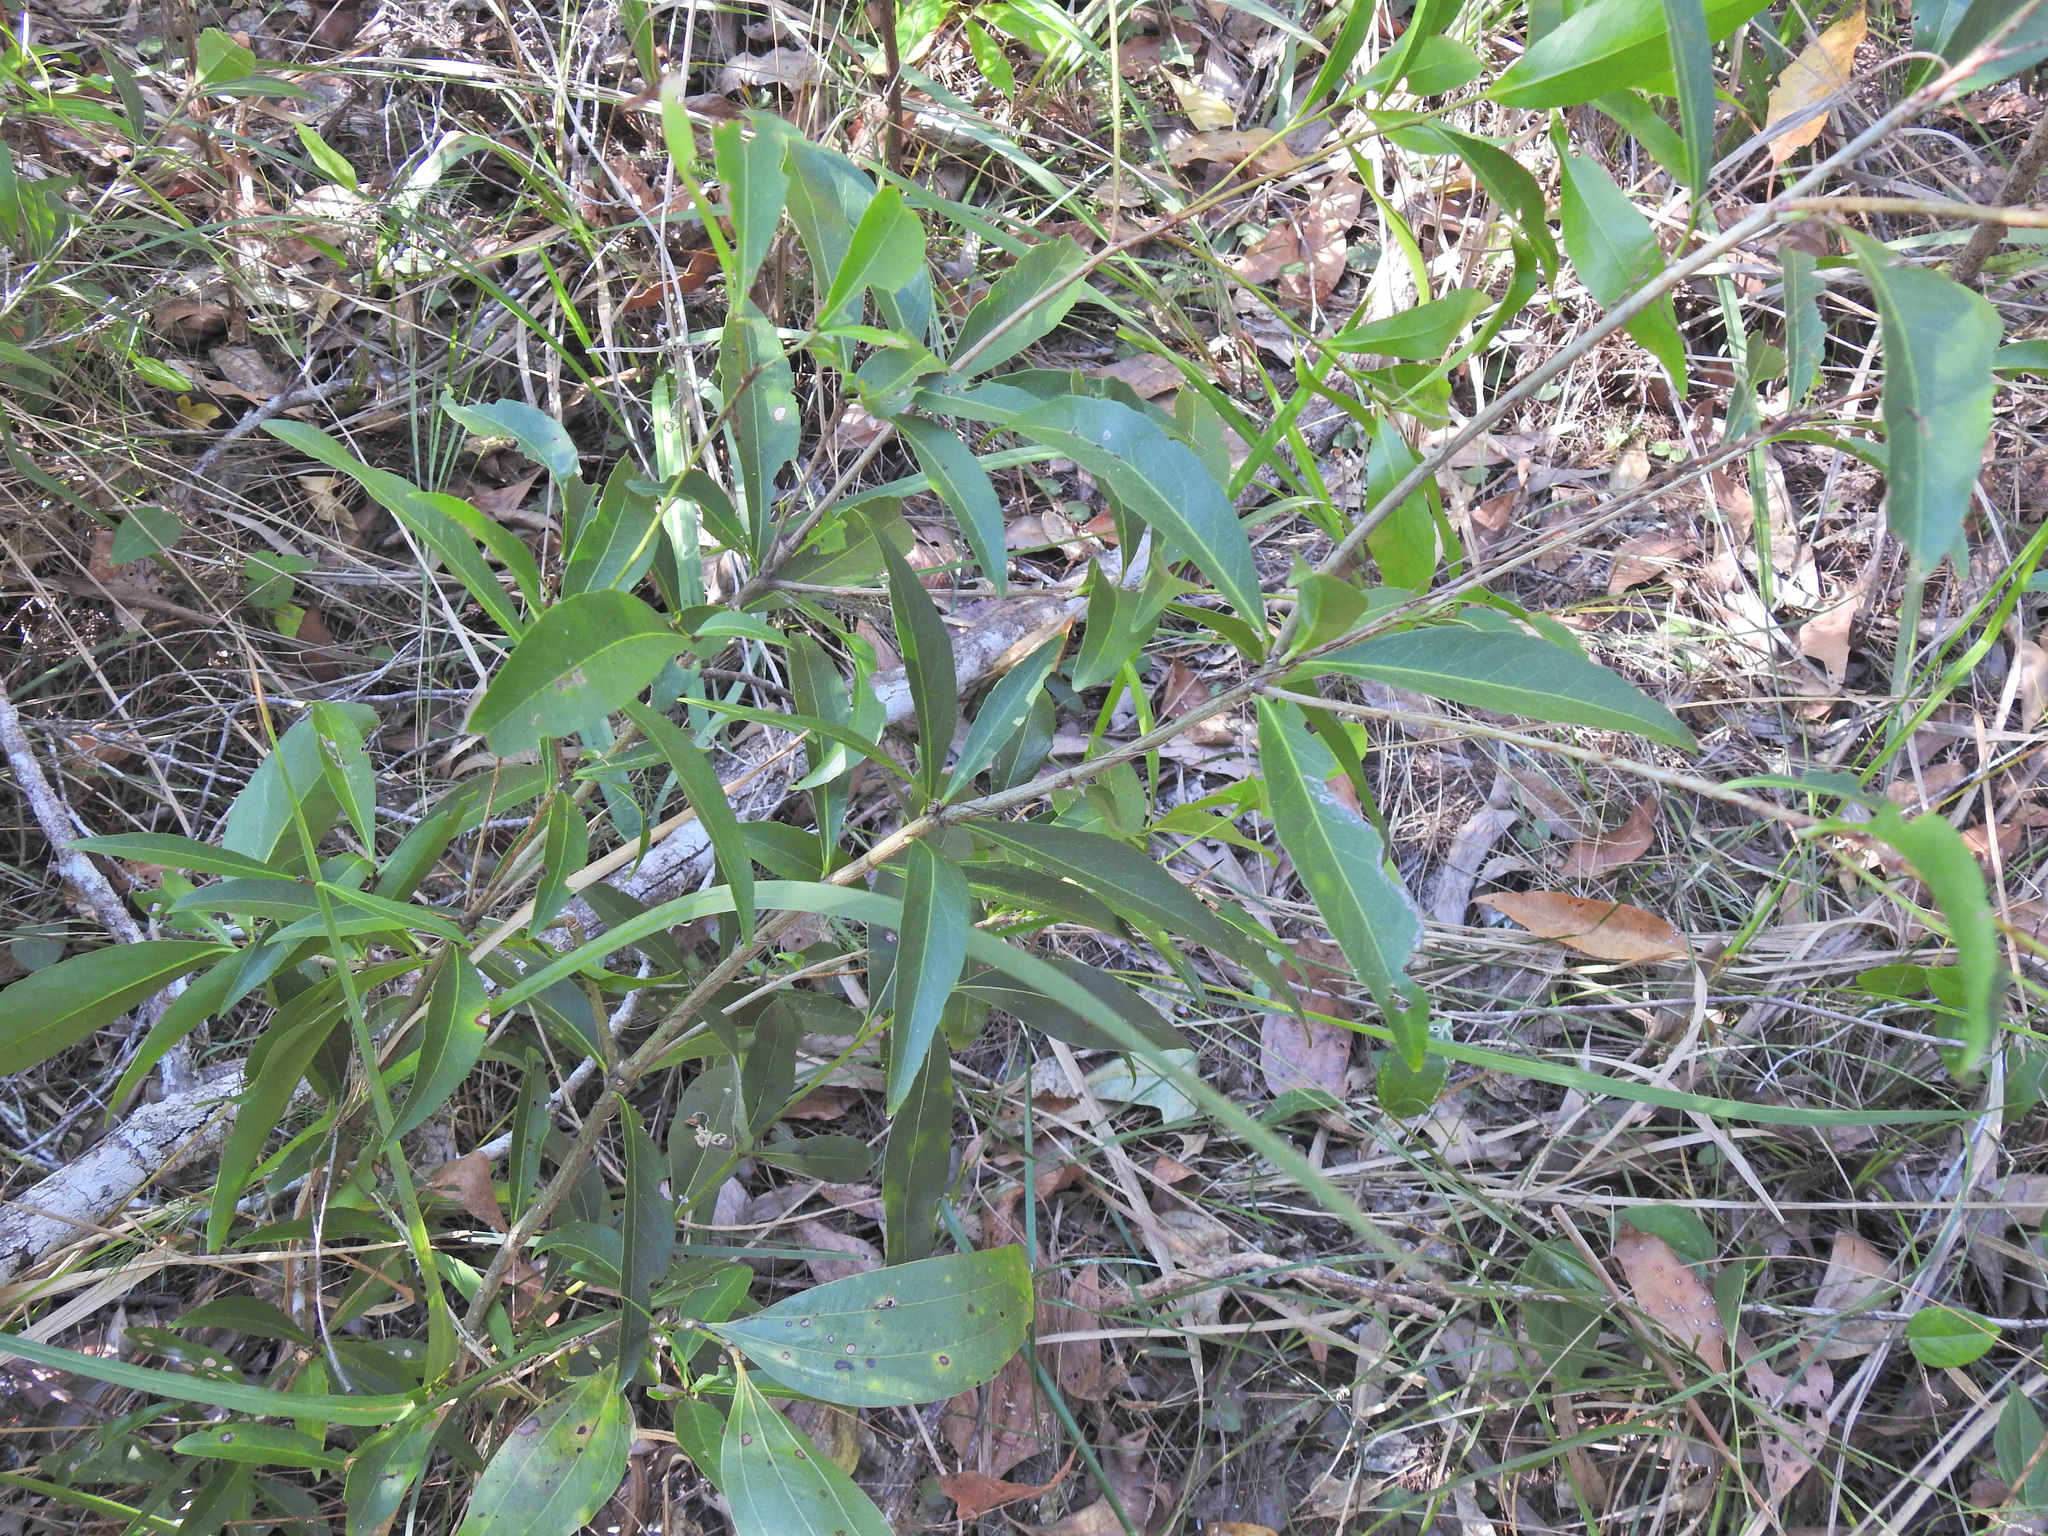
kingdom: Plantae
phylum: Tracheophyta
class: Magnoliopsida
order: Celastrales
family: Celastraceae
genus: Denhamia
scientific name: Denhamia celastroides
